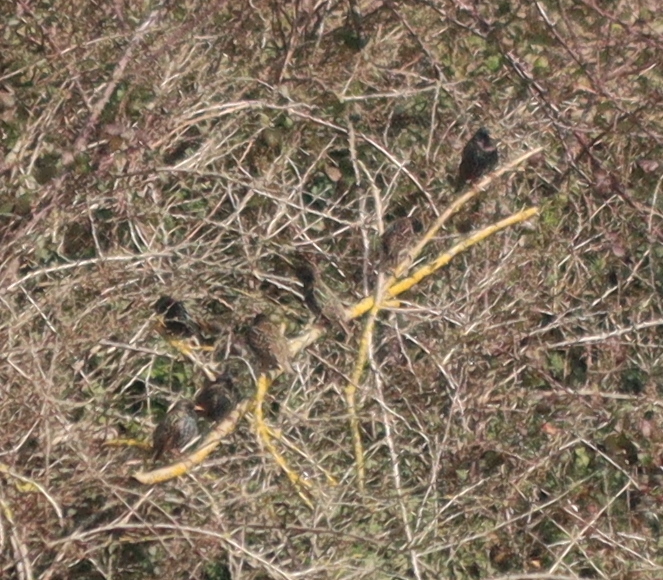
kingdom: Animalia
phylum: Chordata
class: Aves
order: Passeriformes
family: Sturnidae
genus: Sturnus
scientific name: Sturnus vulgaris
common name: Common starling
